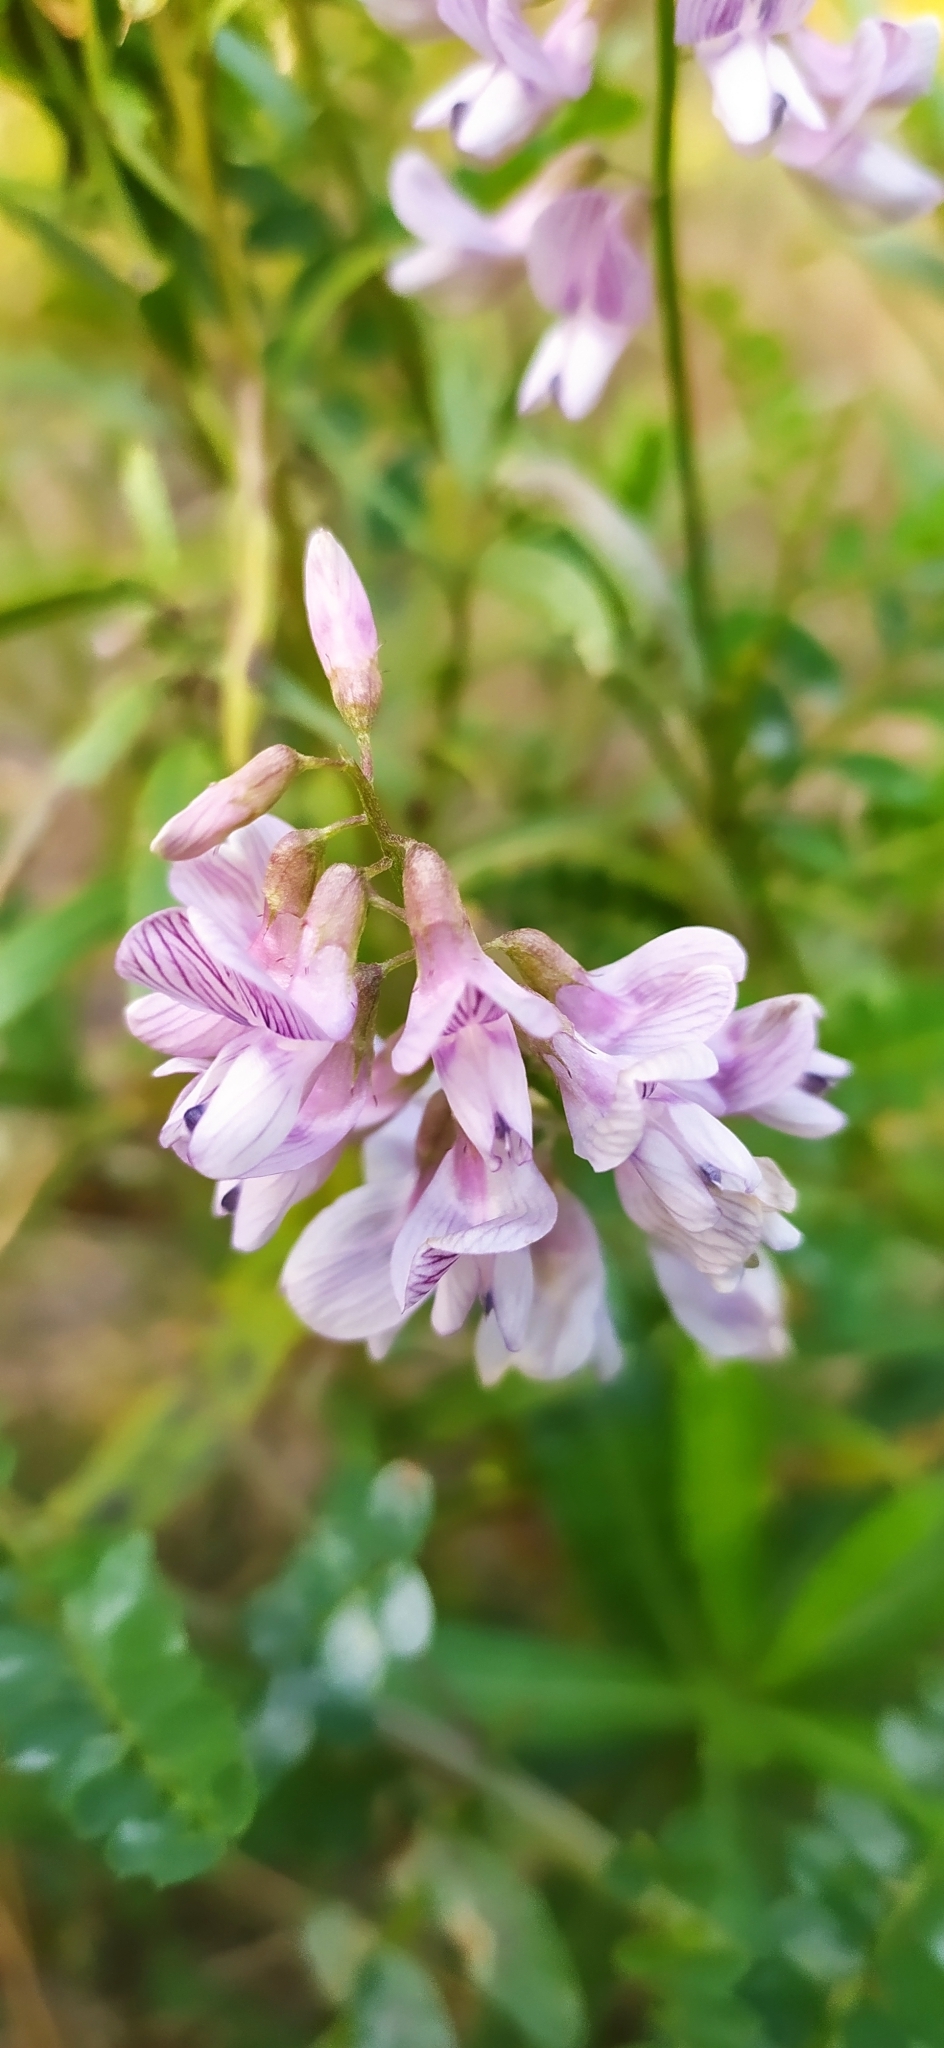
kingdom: Plantae
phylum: Tracheophyta
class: Magnoliopsida
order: Fabales
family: Fabaceae
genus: Vicia
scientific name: Vicia sylvatica
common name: Wood vetch
